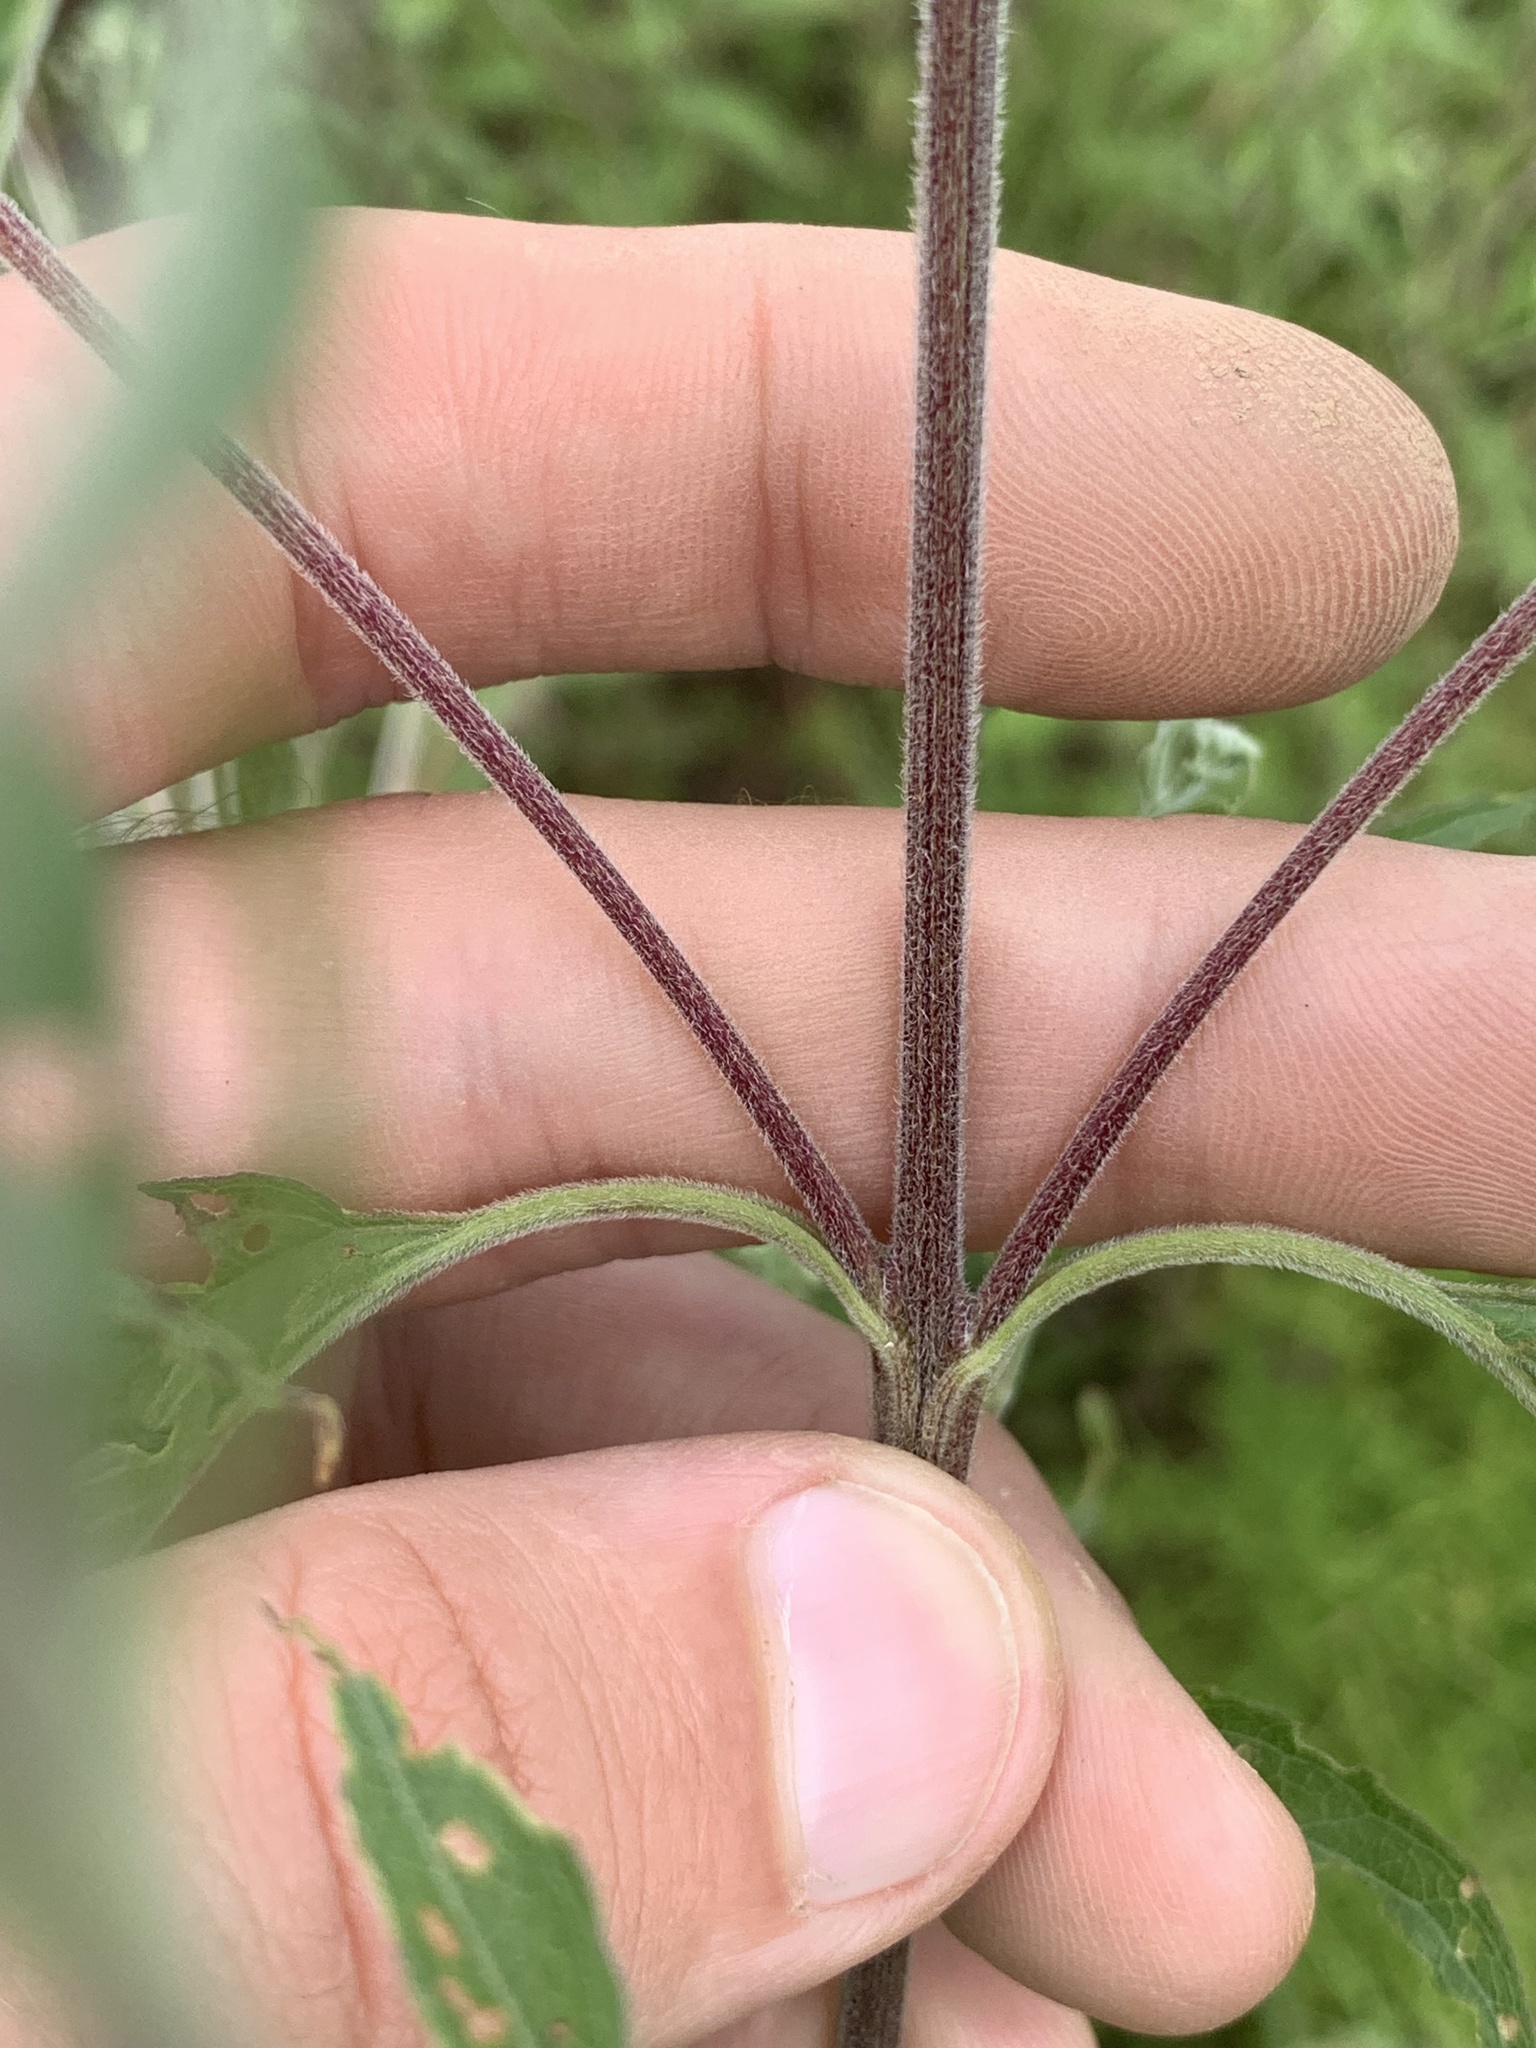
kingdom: Plantae
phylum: Tracheophyta
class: Magnoliopsida
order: Asterales
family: Asteraceae
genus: Eupatorium
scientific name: Eupatorium serotinum
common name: Late boneset
